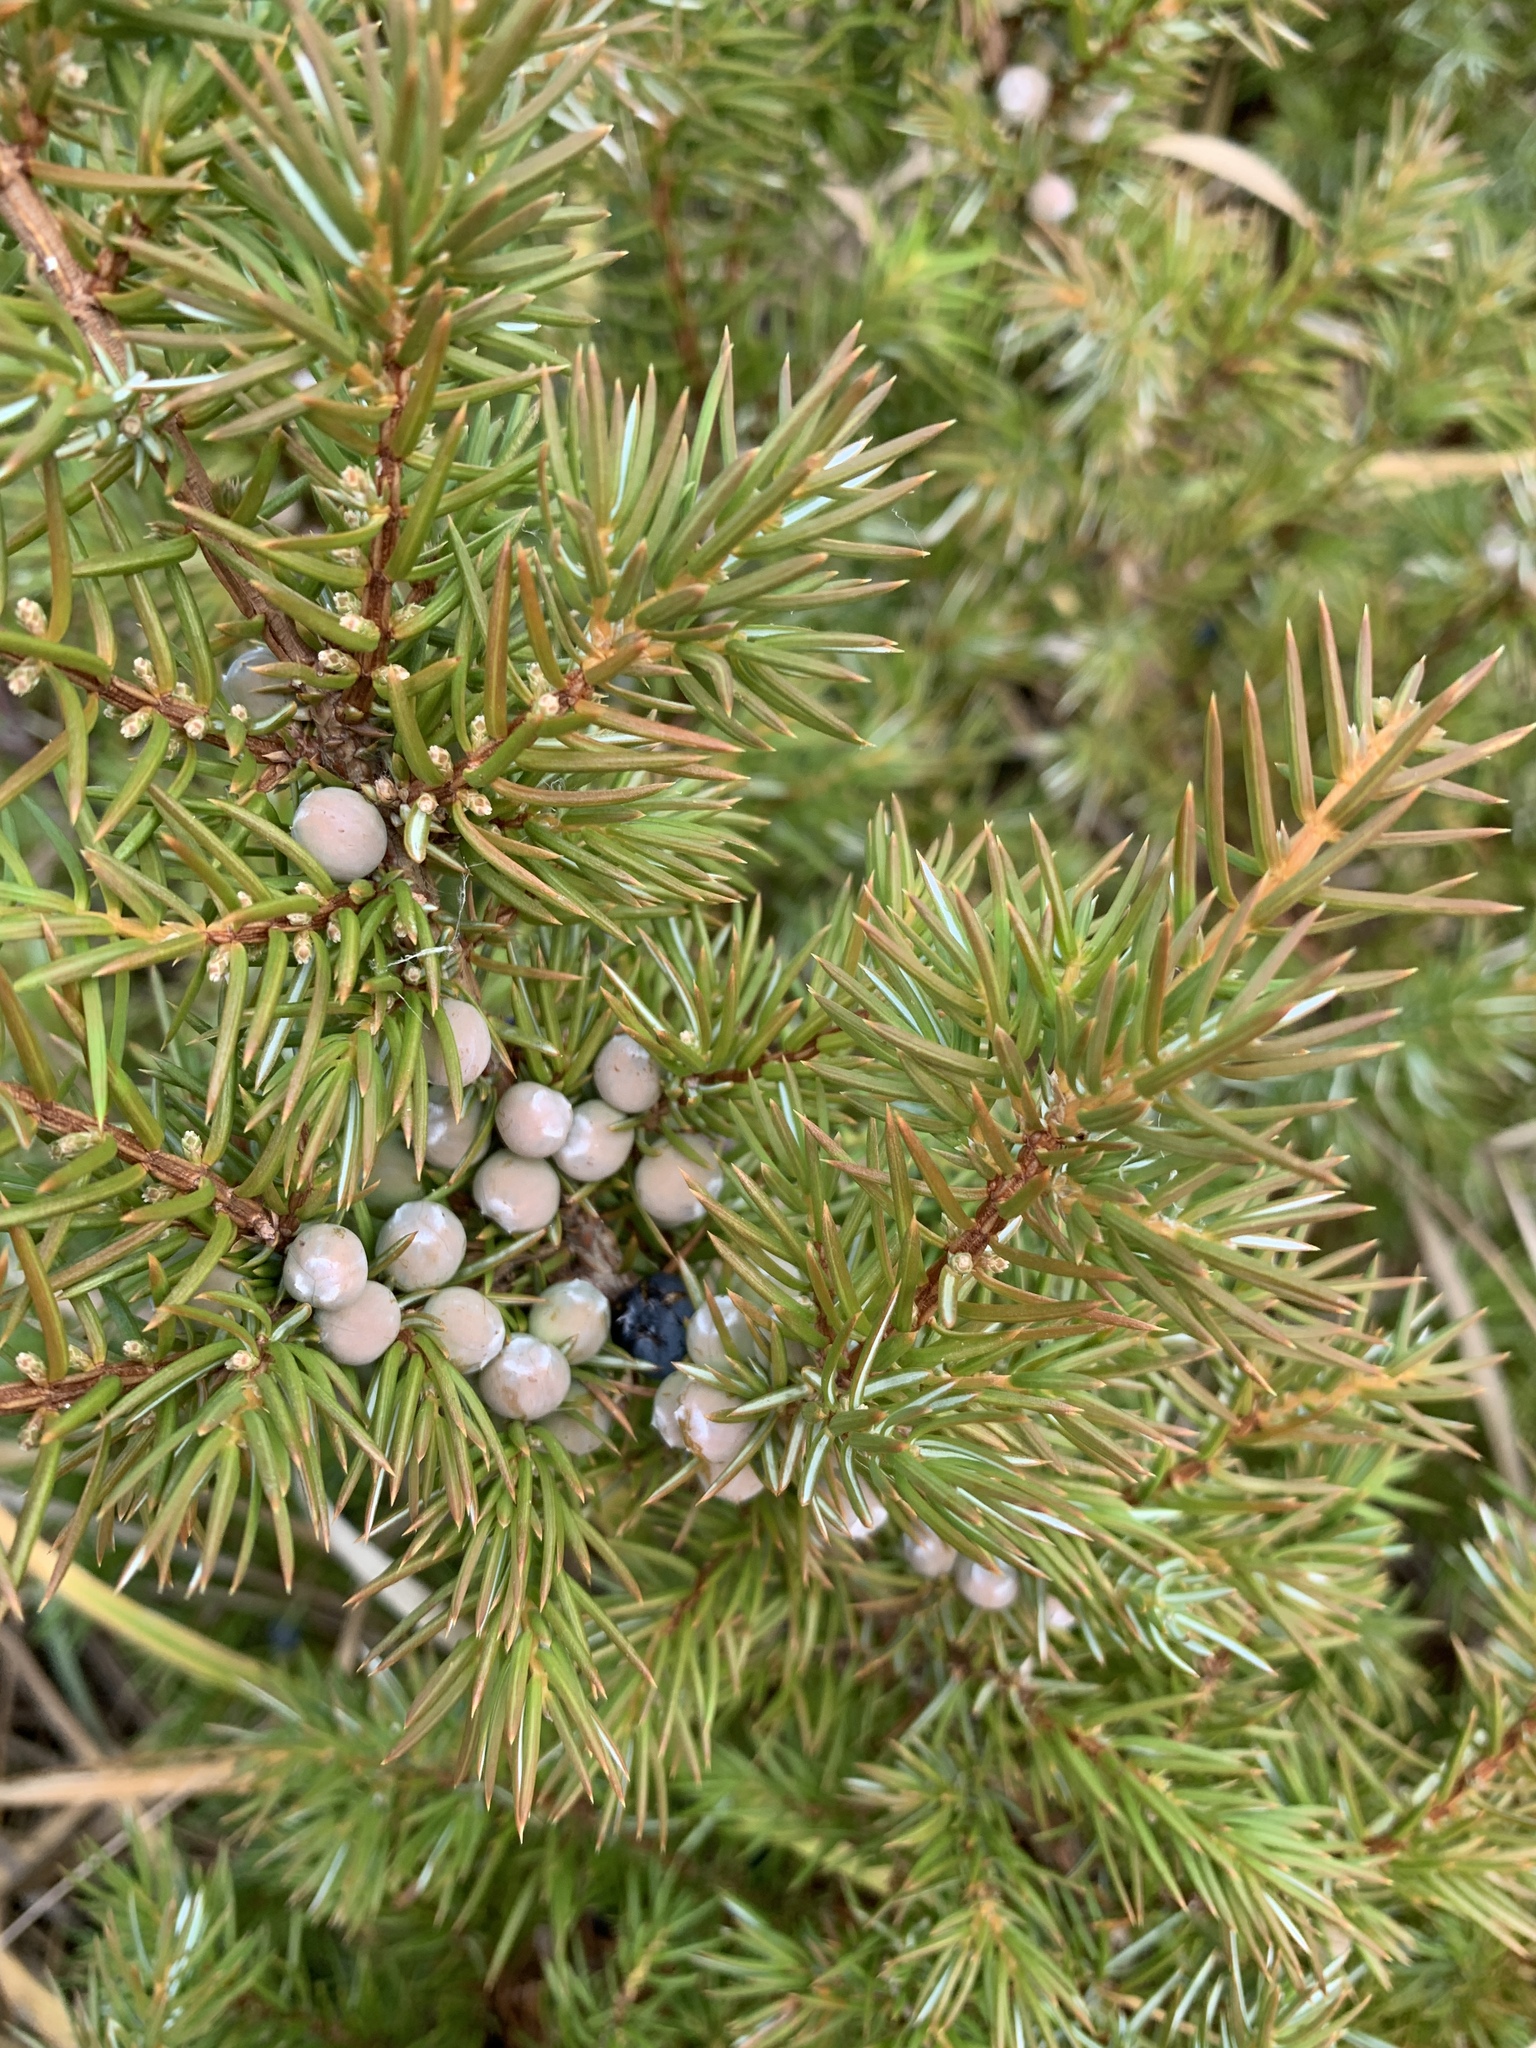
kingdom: Plantae
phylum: Tracheophyta
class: Pinopsida
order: Pinales
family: Cupressaceae
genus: Juniperus
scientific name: Juniperus communis
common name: Common juniper
